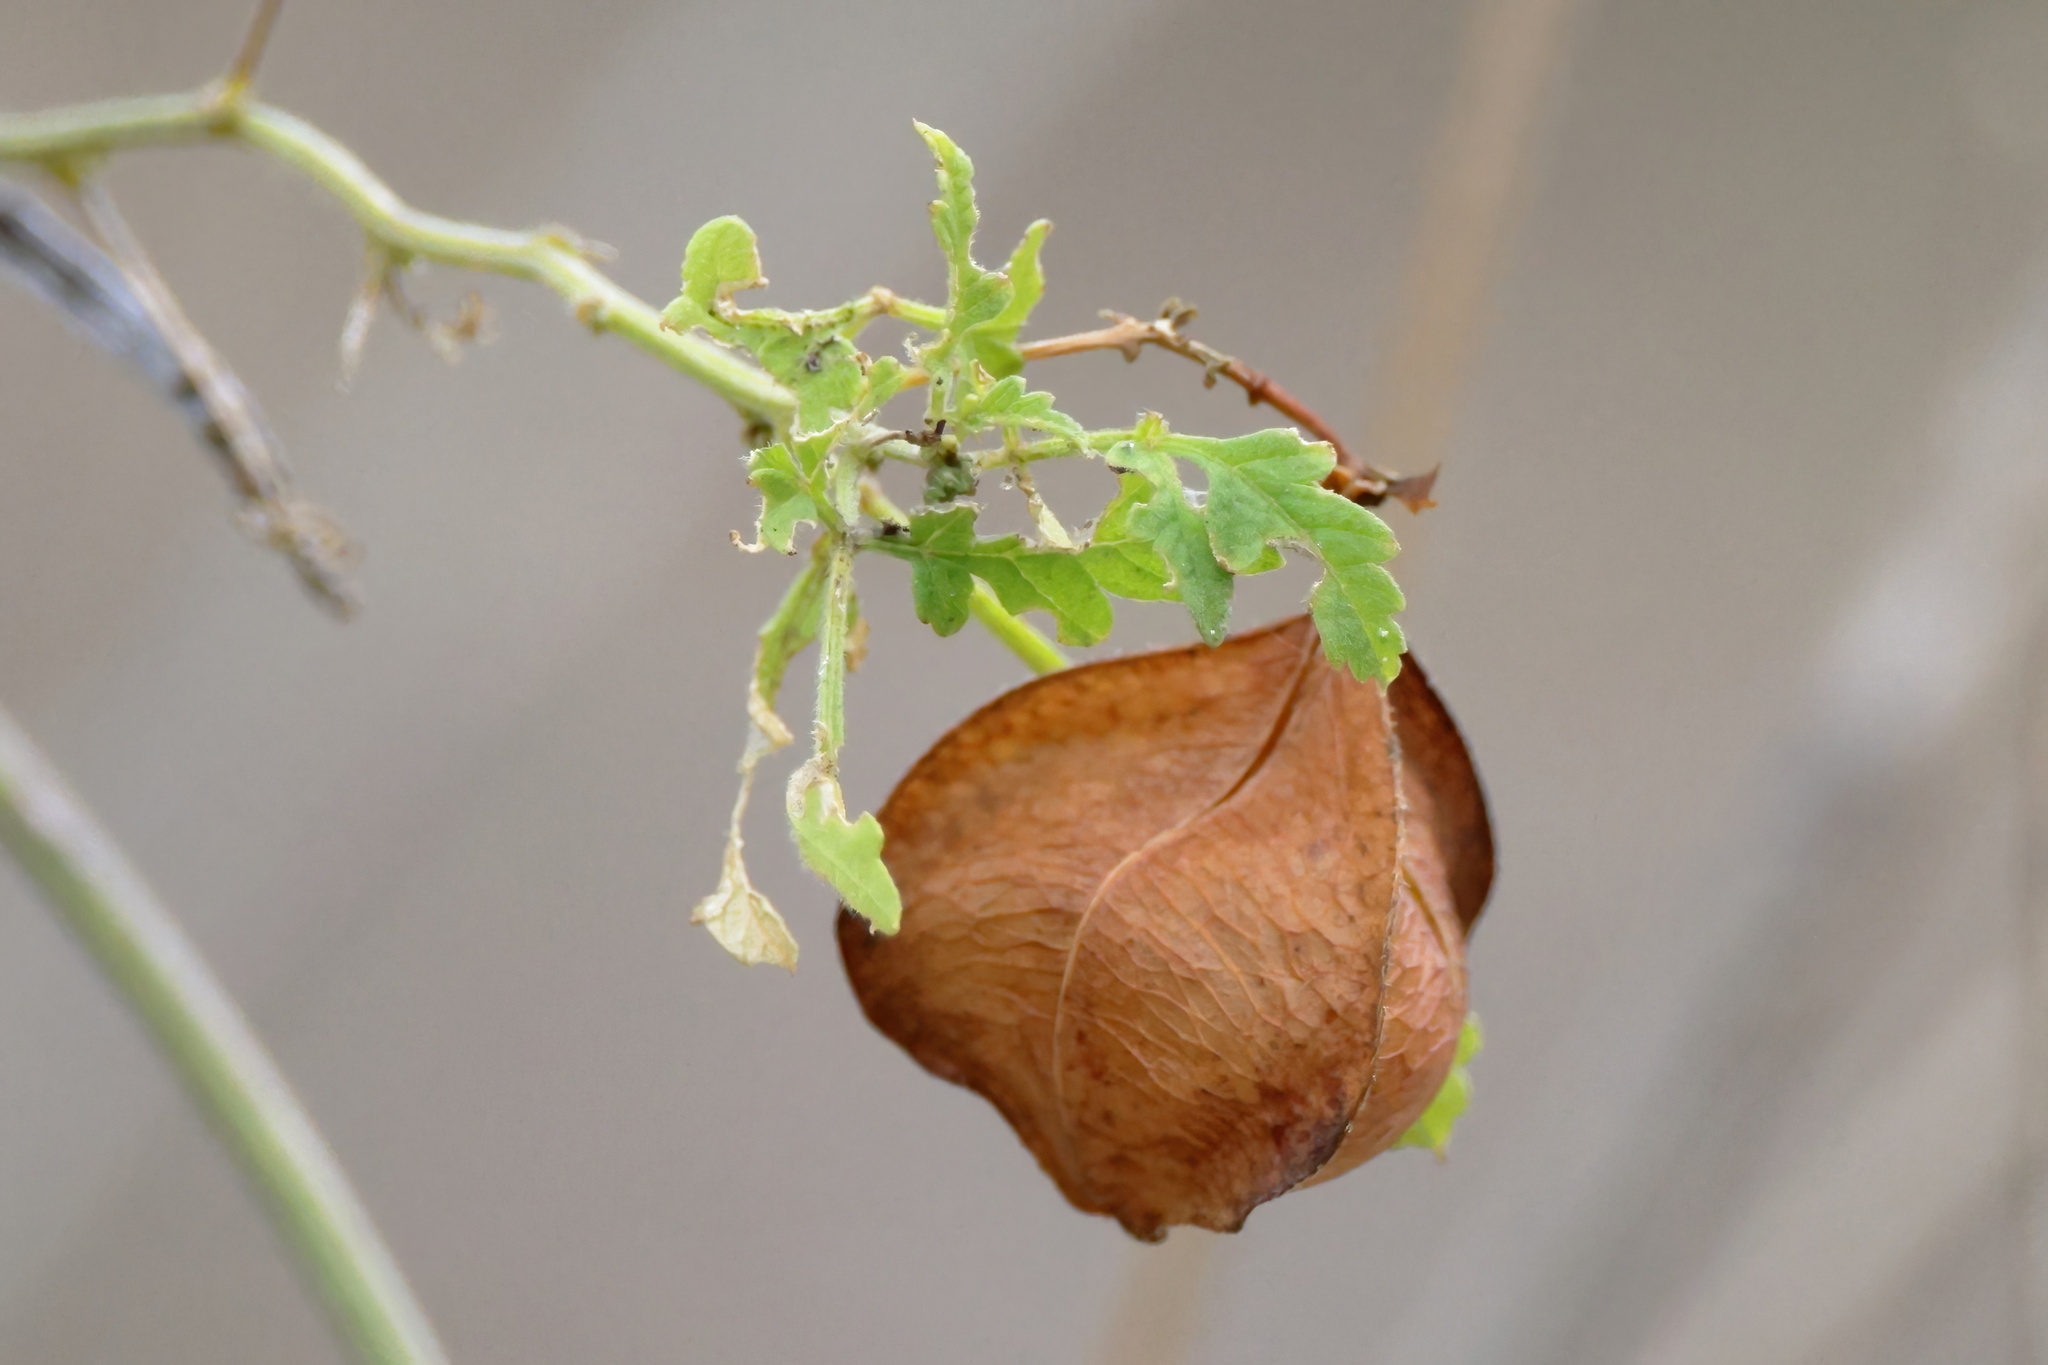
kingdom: Plantae
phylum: Tracheophyta
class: Magnoliopsida
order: Sapindales
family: Sapindaceae
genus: Cardiospermum
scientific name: Cardiospermum halicacabum
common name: Balloon vine
